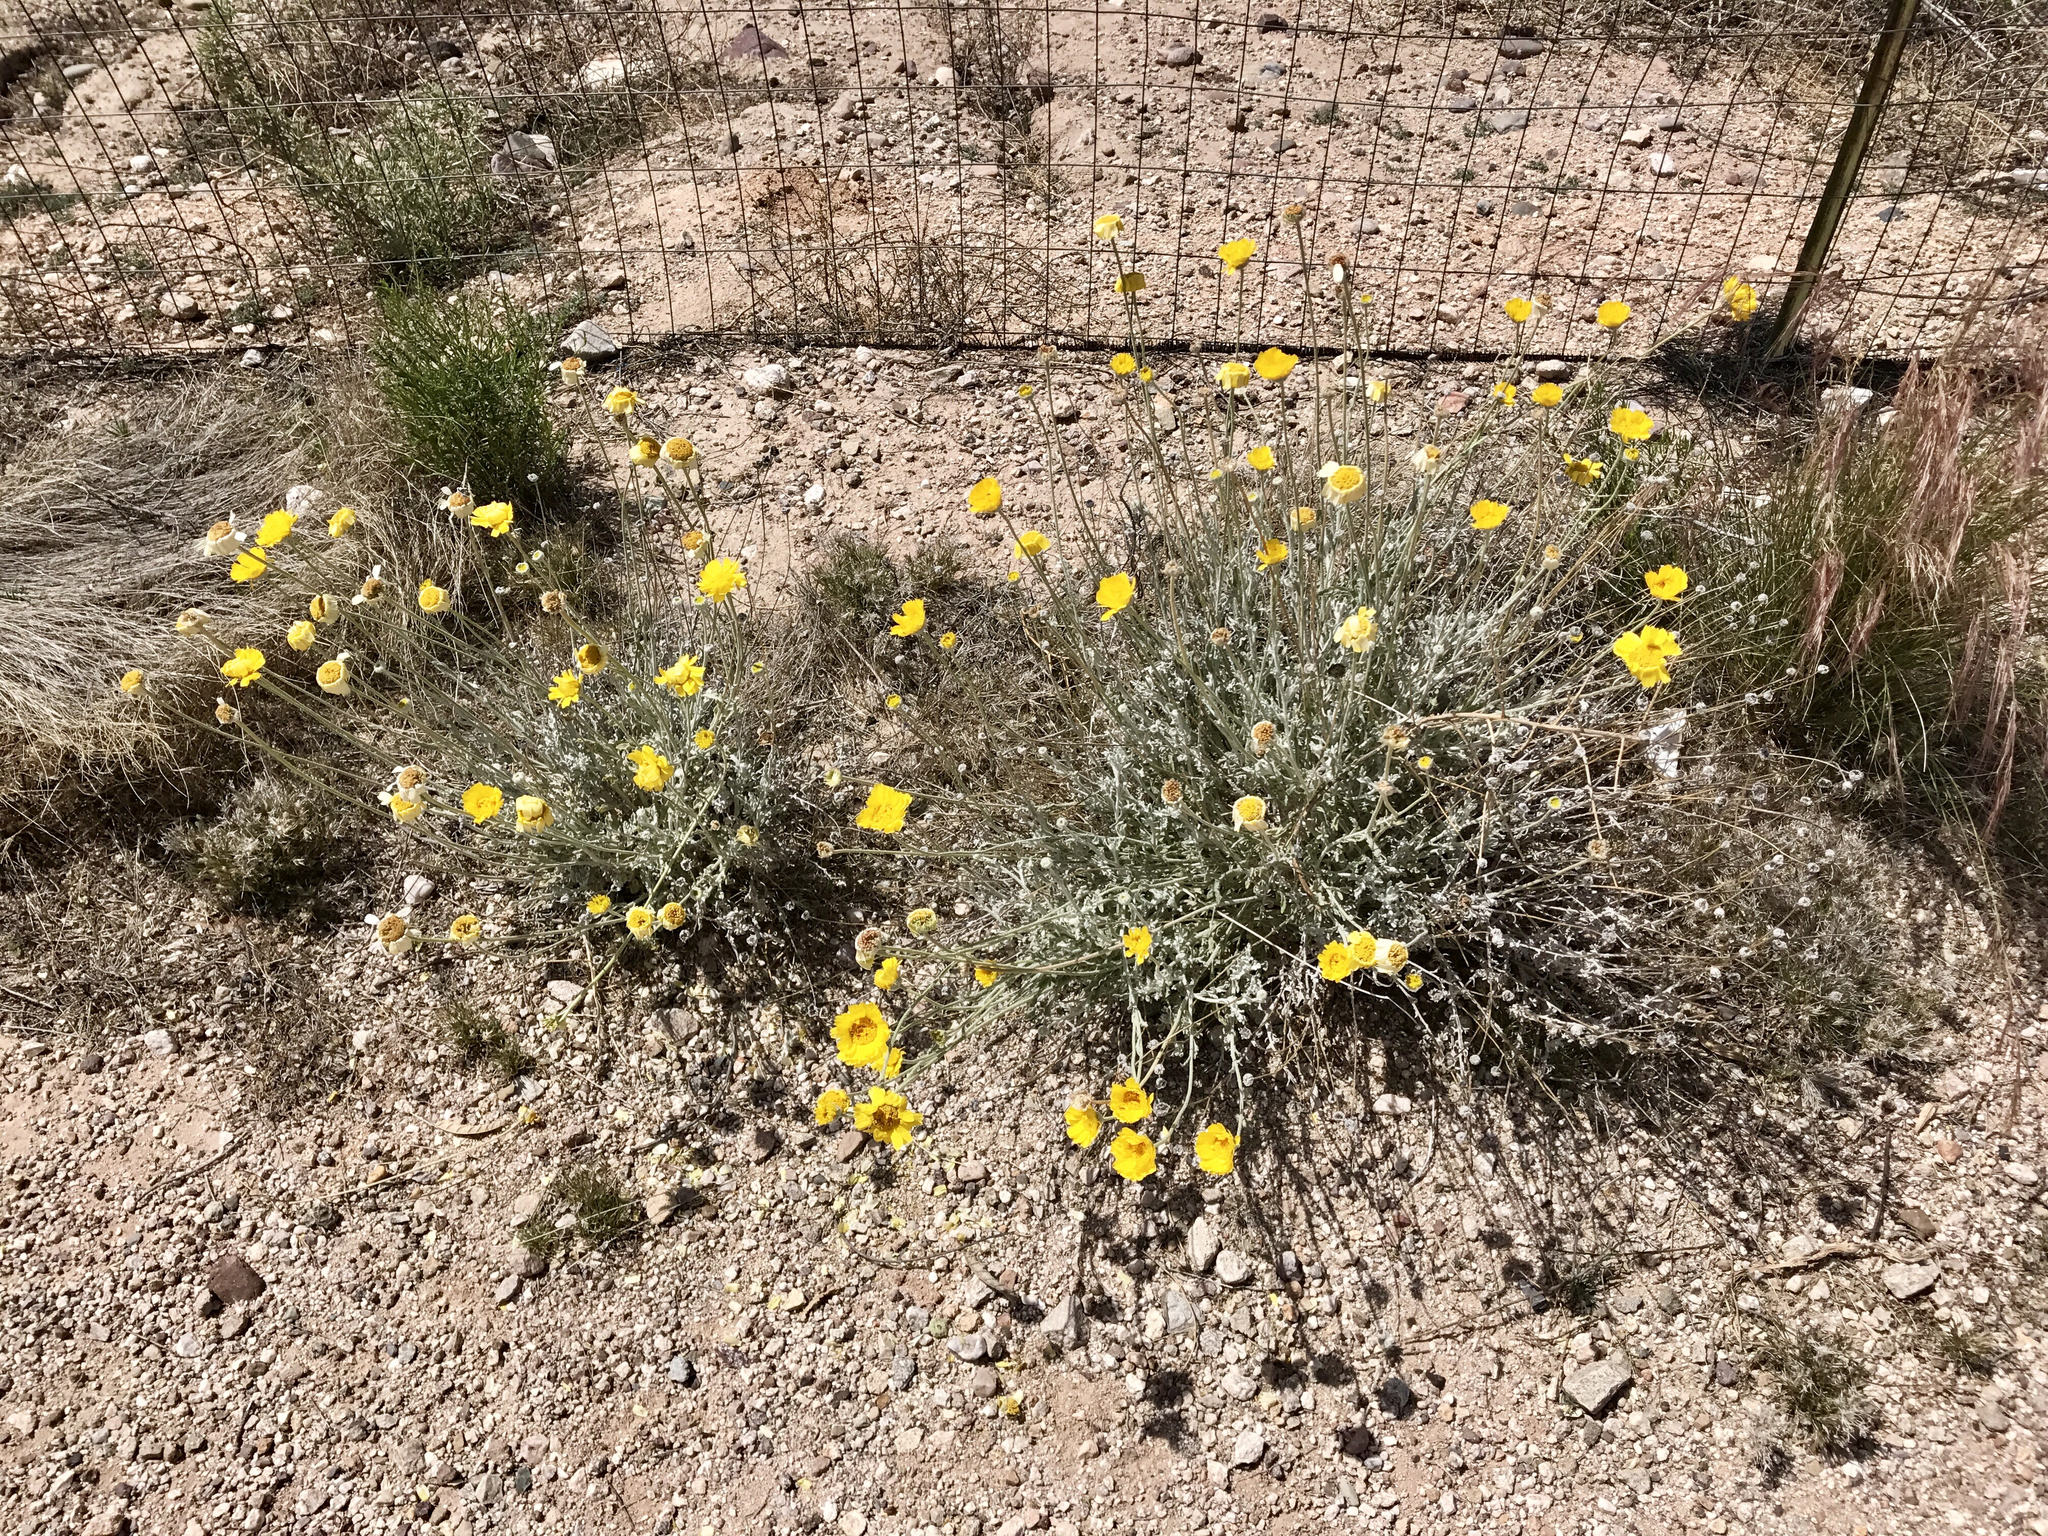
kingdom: Plantae
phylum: Tracheophyta
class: Magnoliopsida
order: Asterales
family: Asteraceae
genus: Baileya
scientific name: Baileya multiradiata
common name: Desert-marigold
